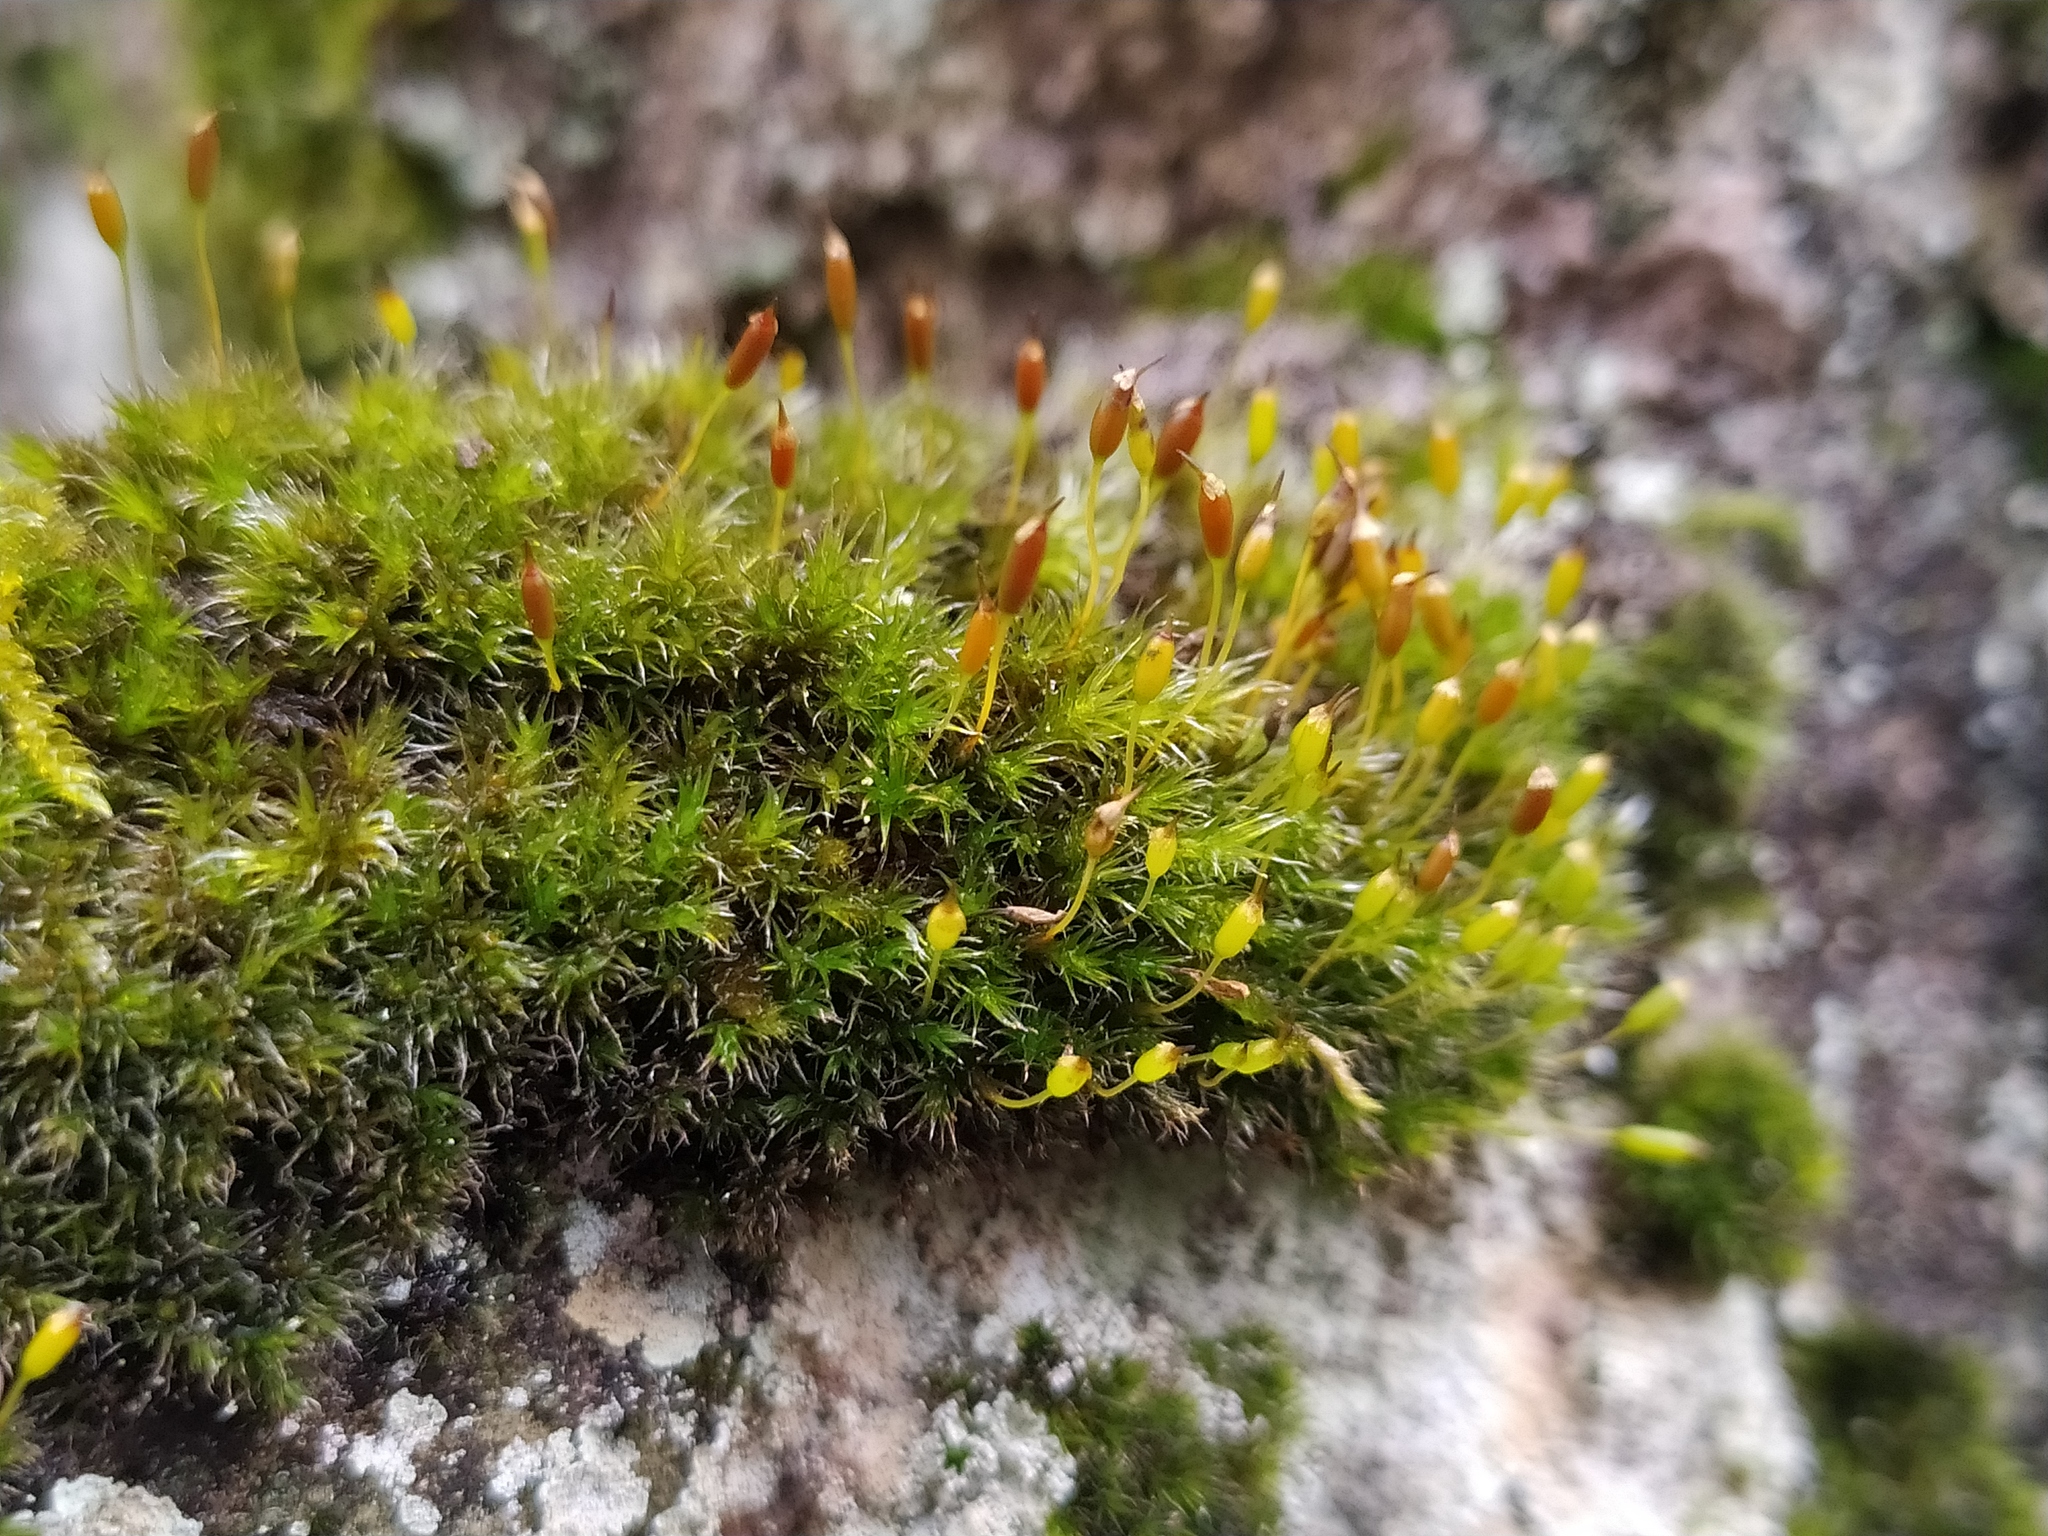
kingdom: Plantae
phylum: Bryophyta
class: Bryopsida
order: Grimmiales
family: Grimmiaceae
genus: Bucklandiella
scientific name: Bucklandiella heterosticha
